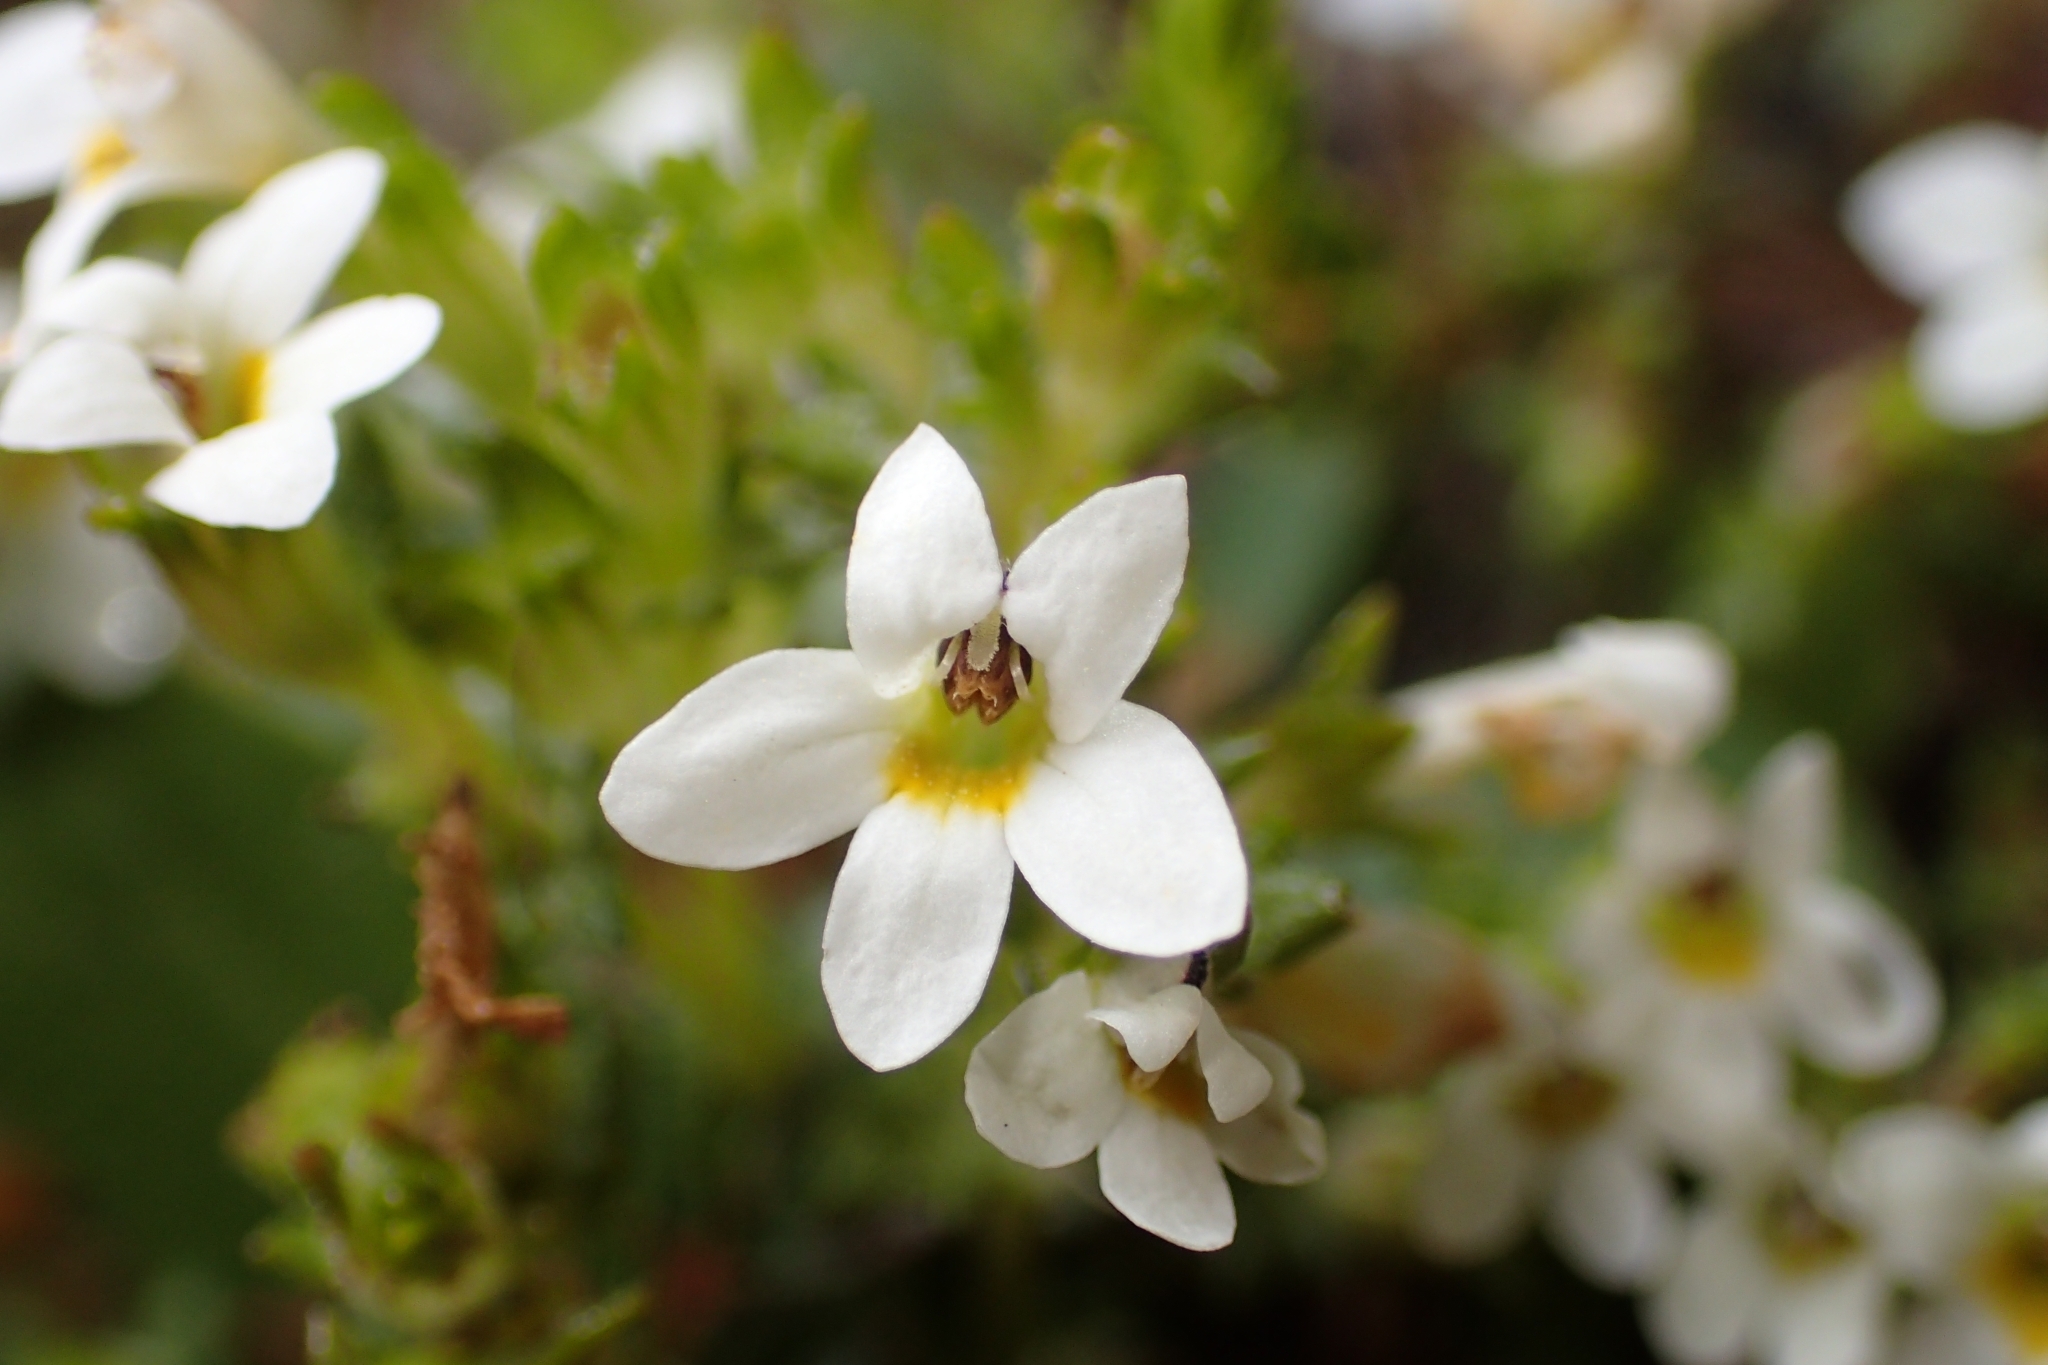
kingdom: Plantae
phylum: Tracheophyta
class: Magnoliopsida
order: Lamiales
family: Orobanchaceae
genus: Euphrasia
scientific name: Euphrasia zelandica
